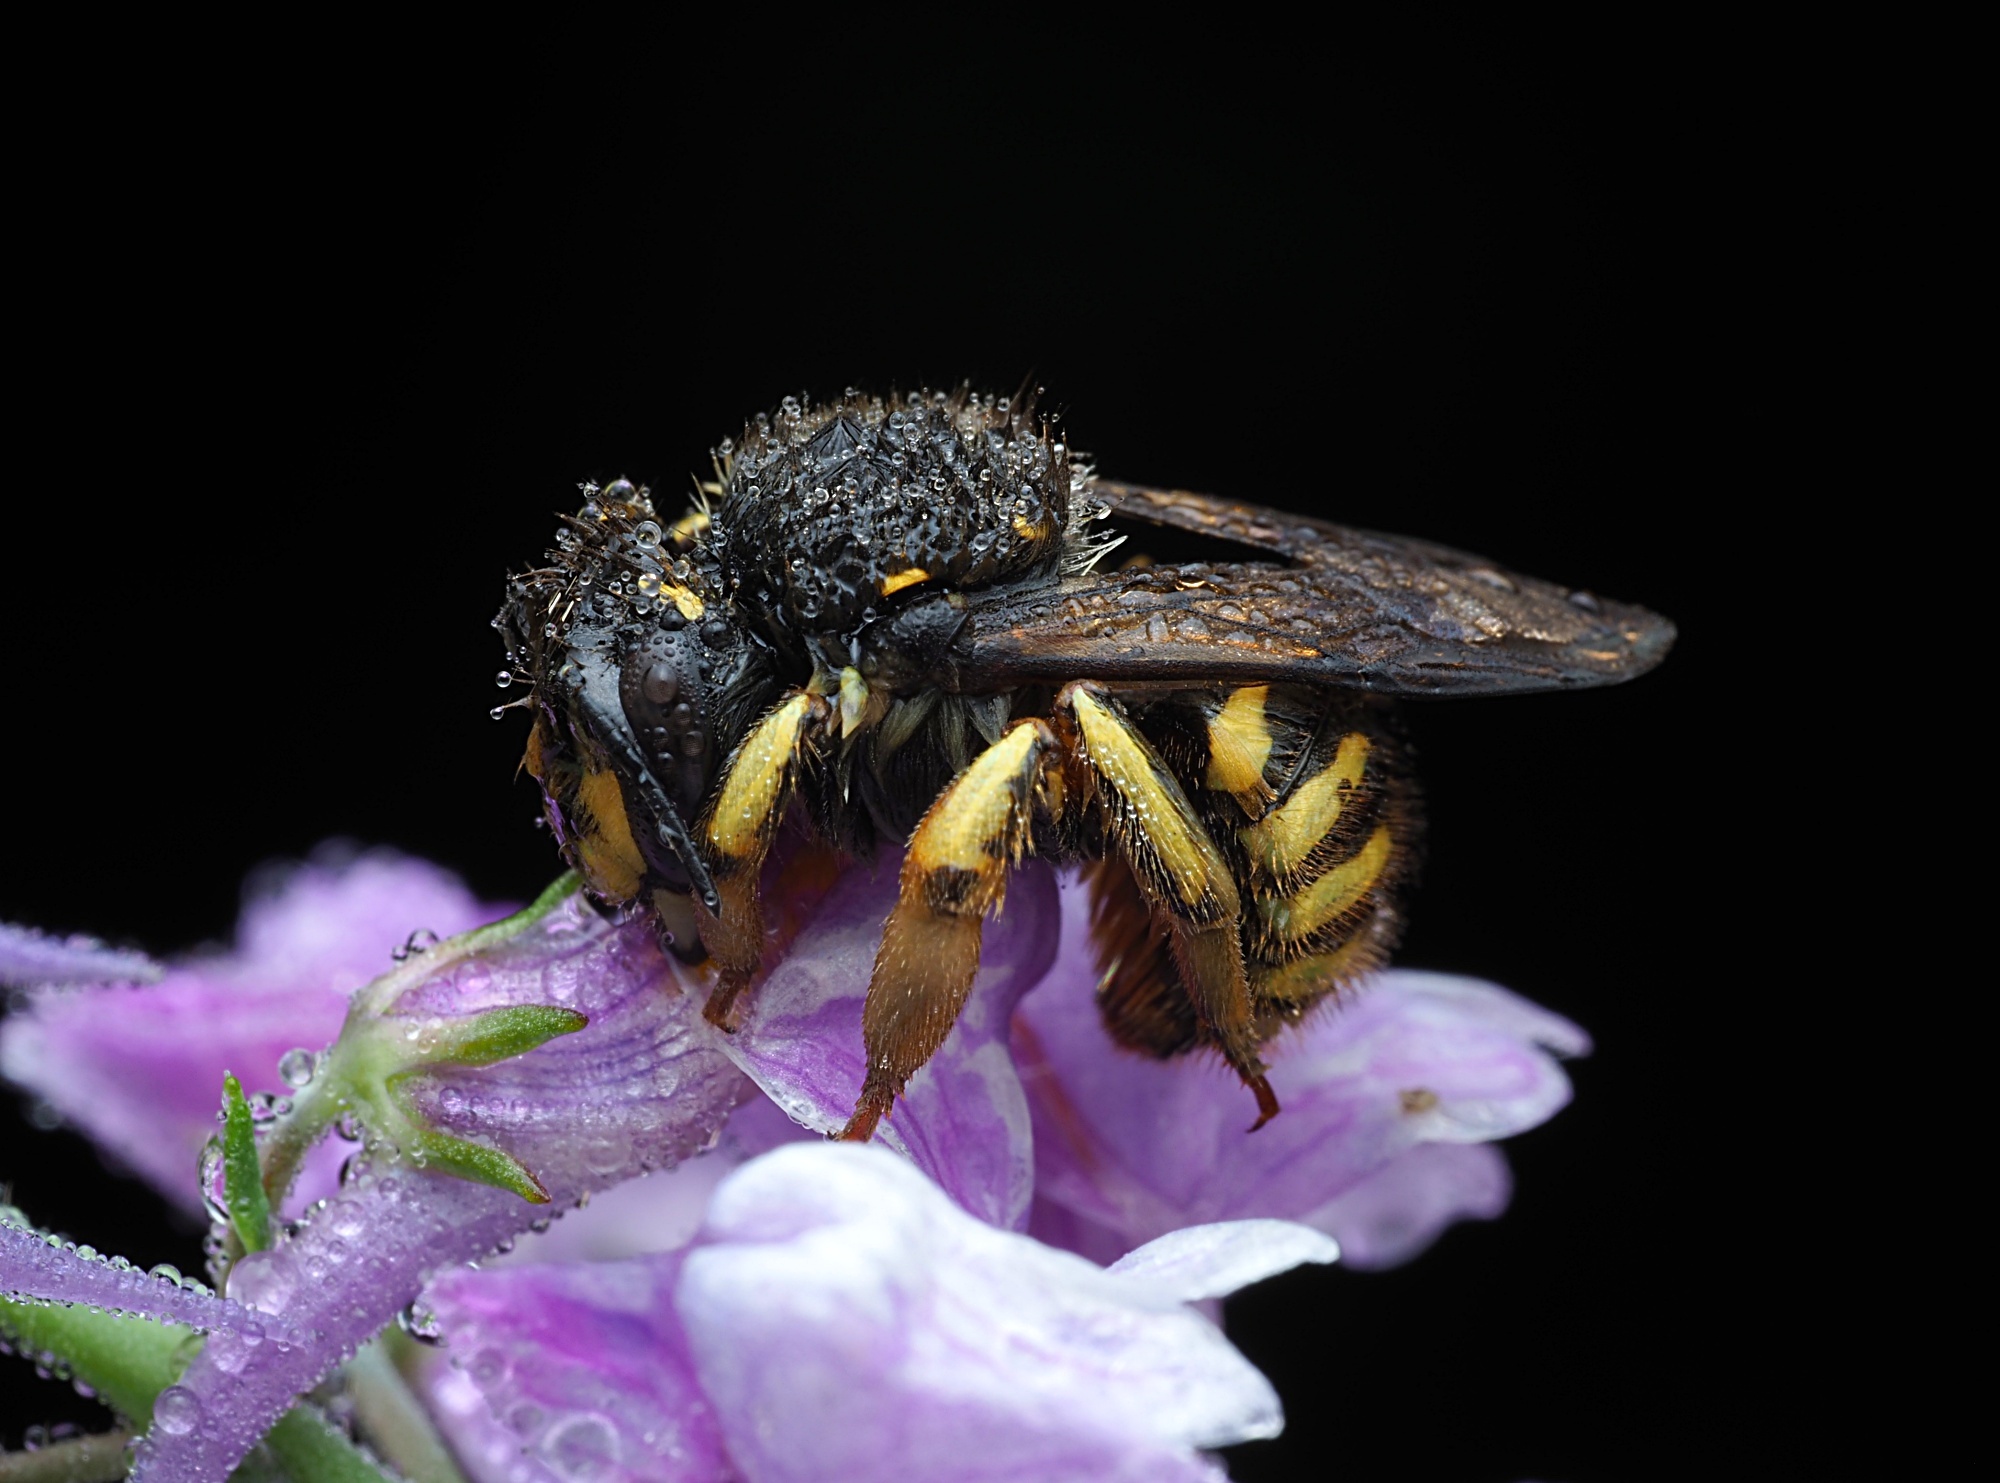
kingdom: Animalia
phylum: Arthropoda
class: Insecta
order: Hymenoptera
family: Megachilidae
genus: Anthidium
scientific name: Anthidium manicatum
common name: Wool carder bee
